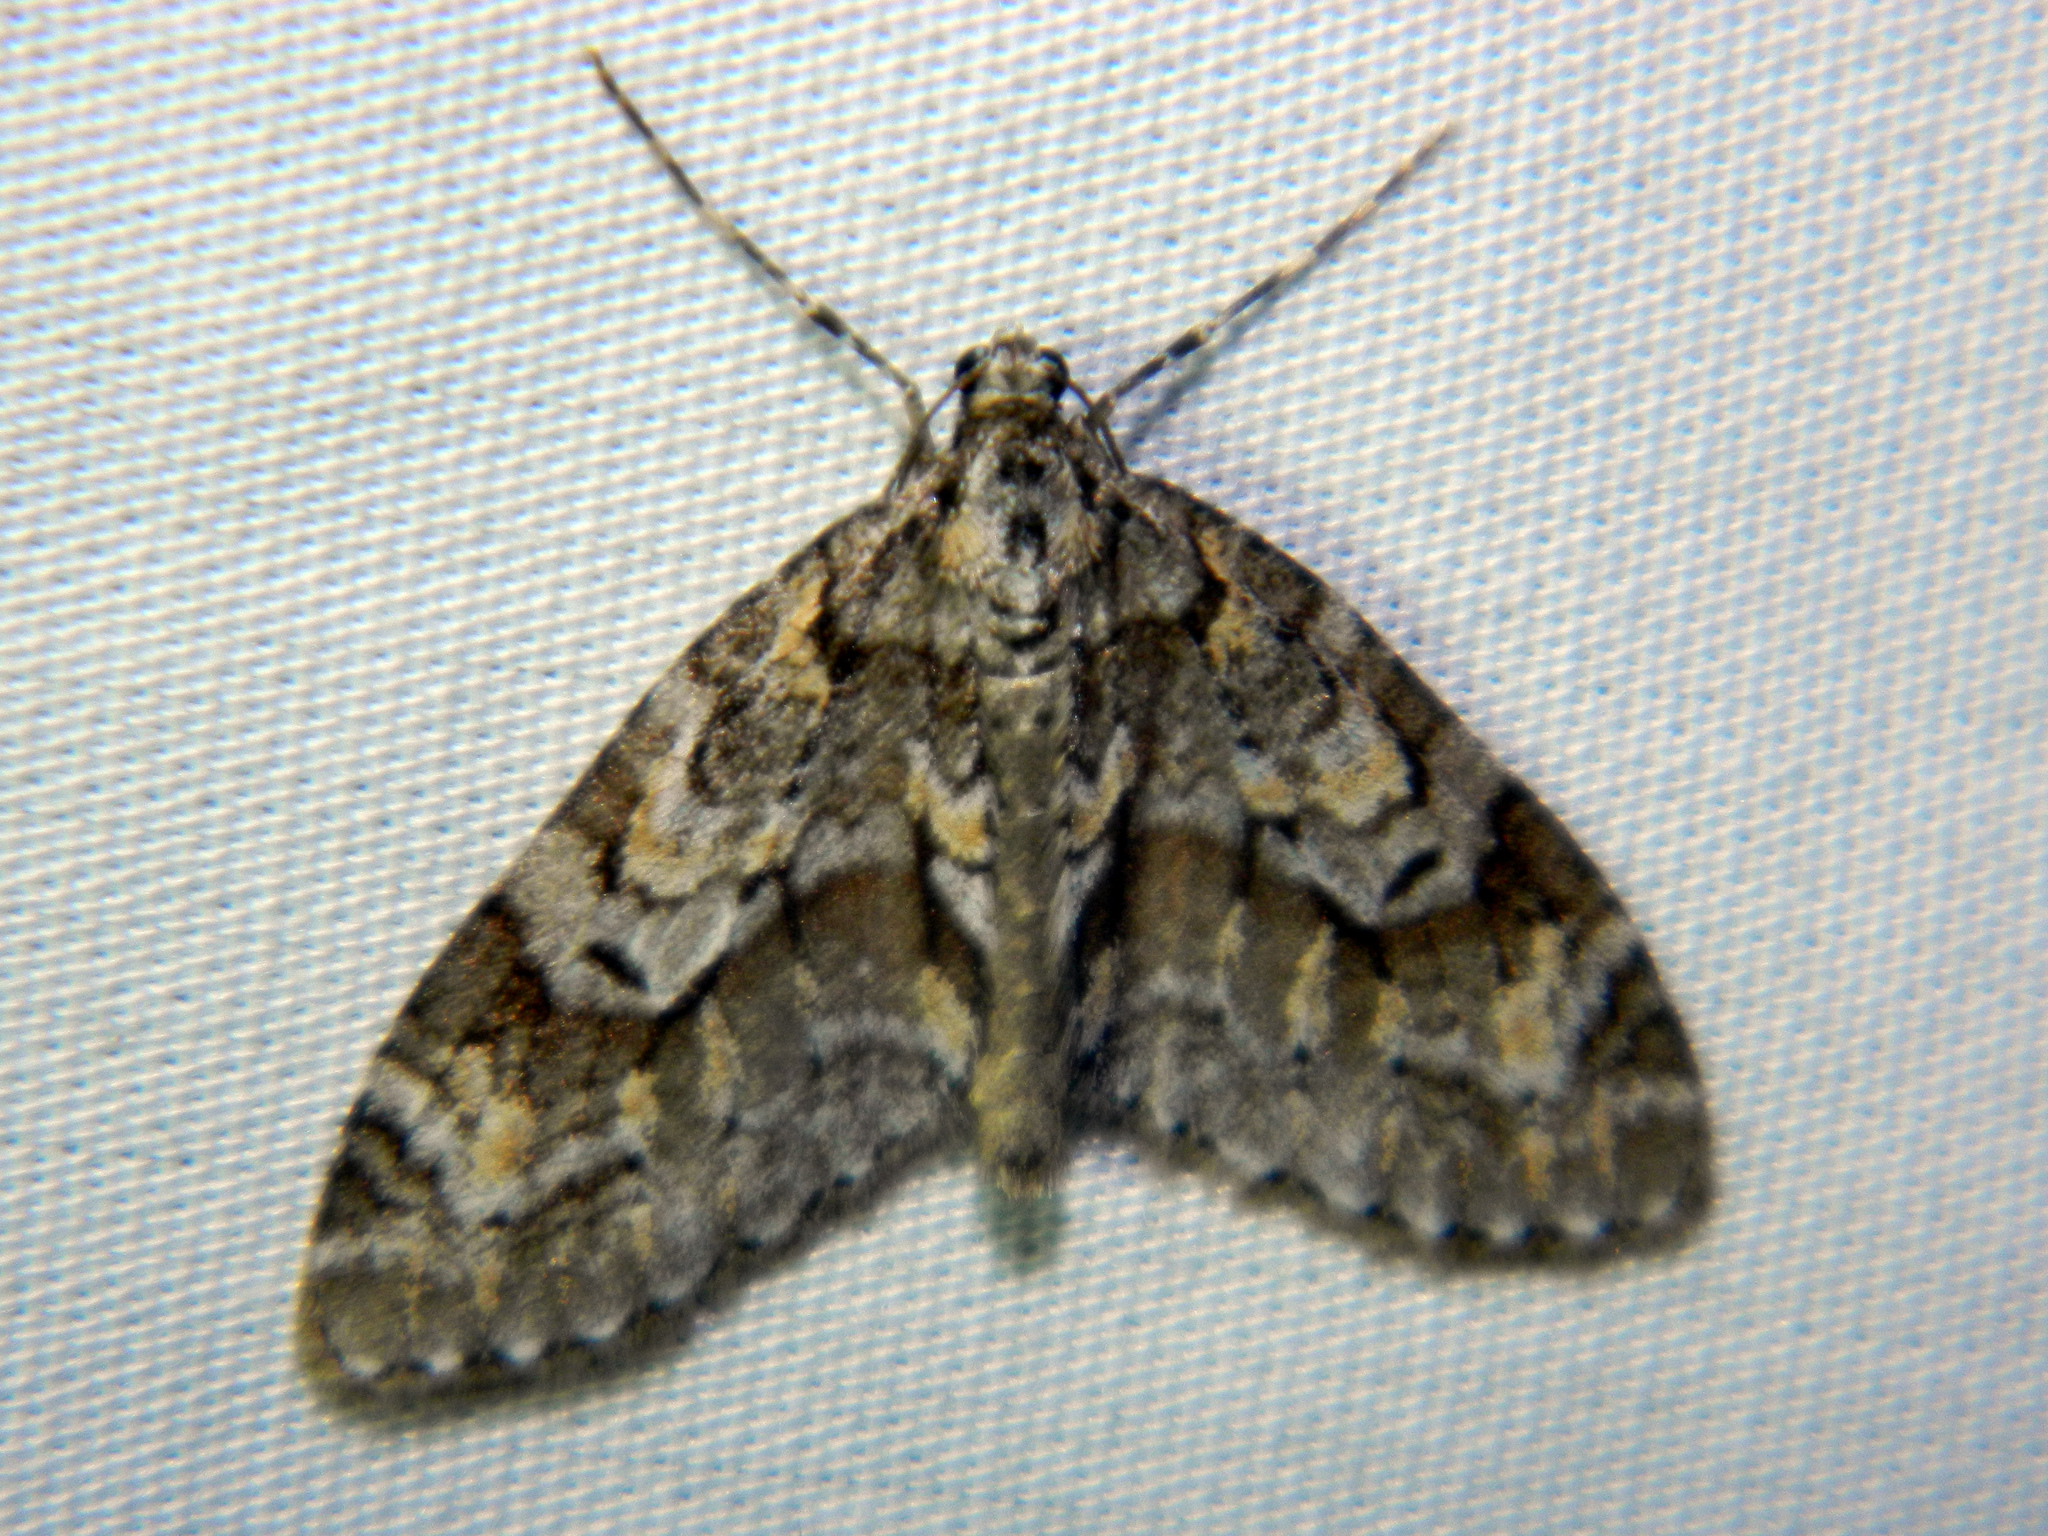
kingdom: Animalia
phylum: Arthropoda
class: Insecta
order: Lepidoptera
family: Geometridae
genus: Cladara
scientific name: Cladara limitaria
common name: Mottled gray carpet
